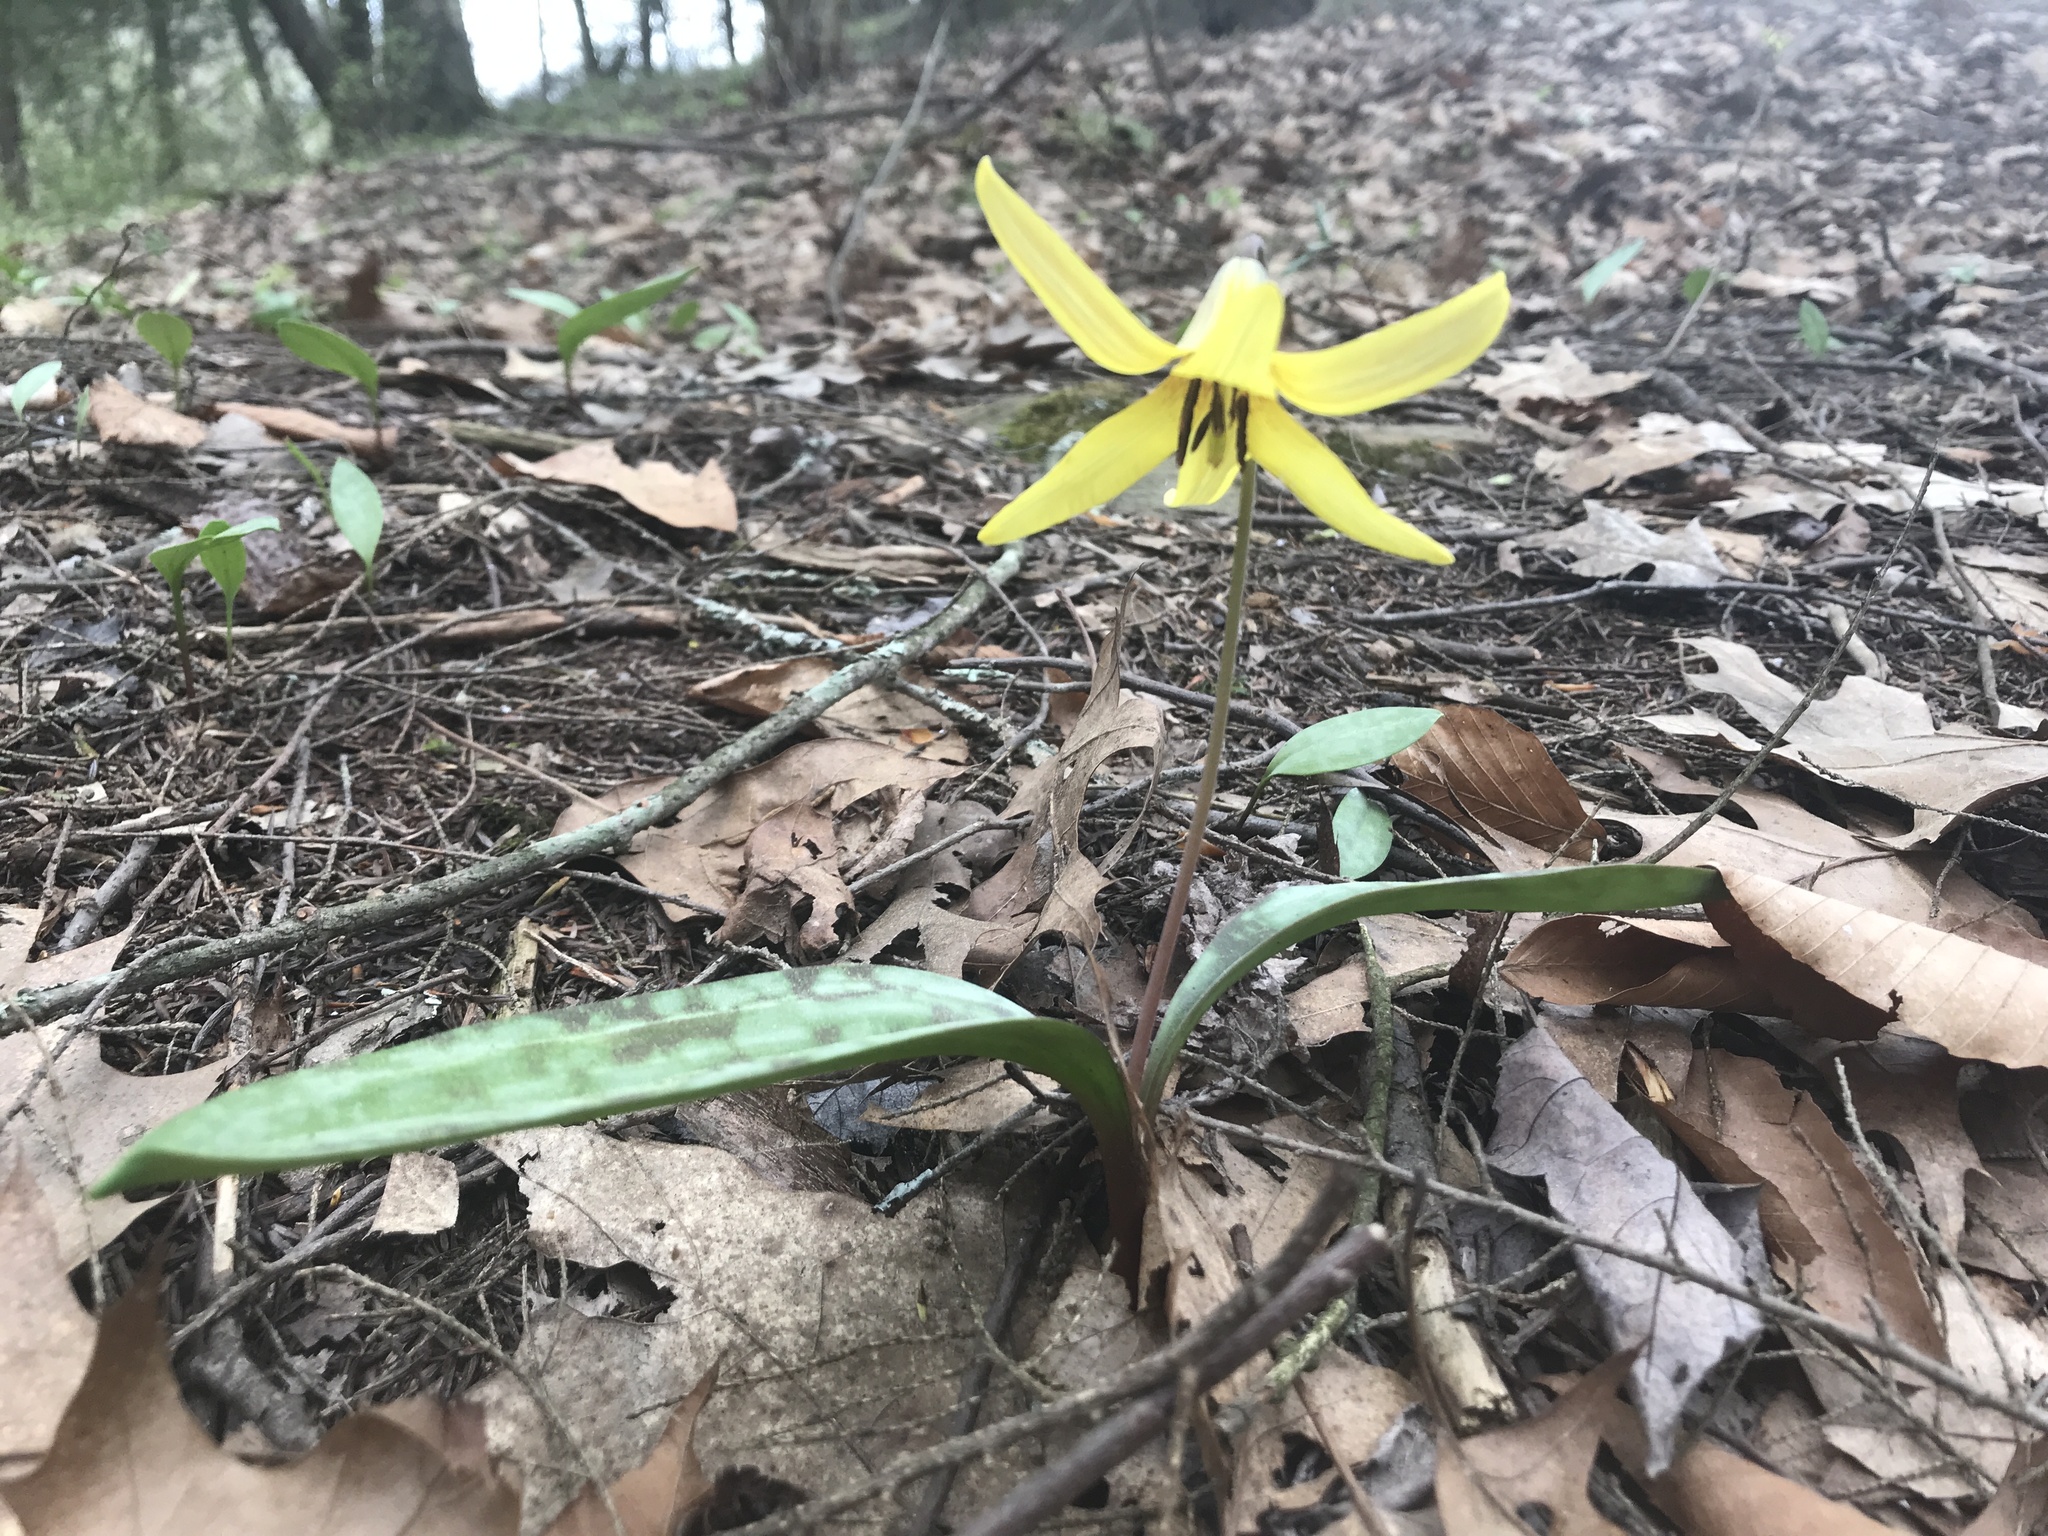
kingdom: Plantae
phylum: Tracheophyta
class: Liliopsida
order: Liliales
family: Liliaceae
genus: Erythronium
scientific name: Erythronium americanum
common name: Yellow adder's-tongue
